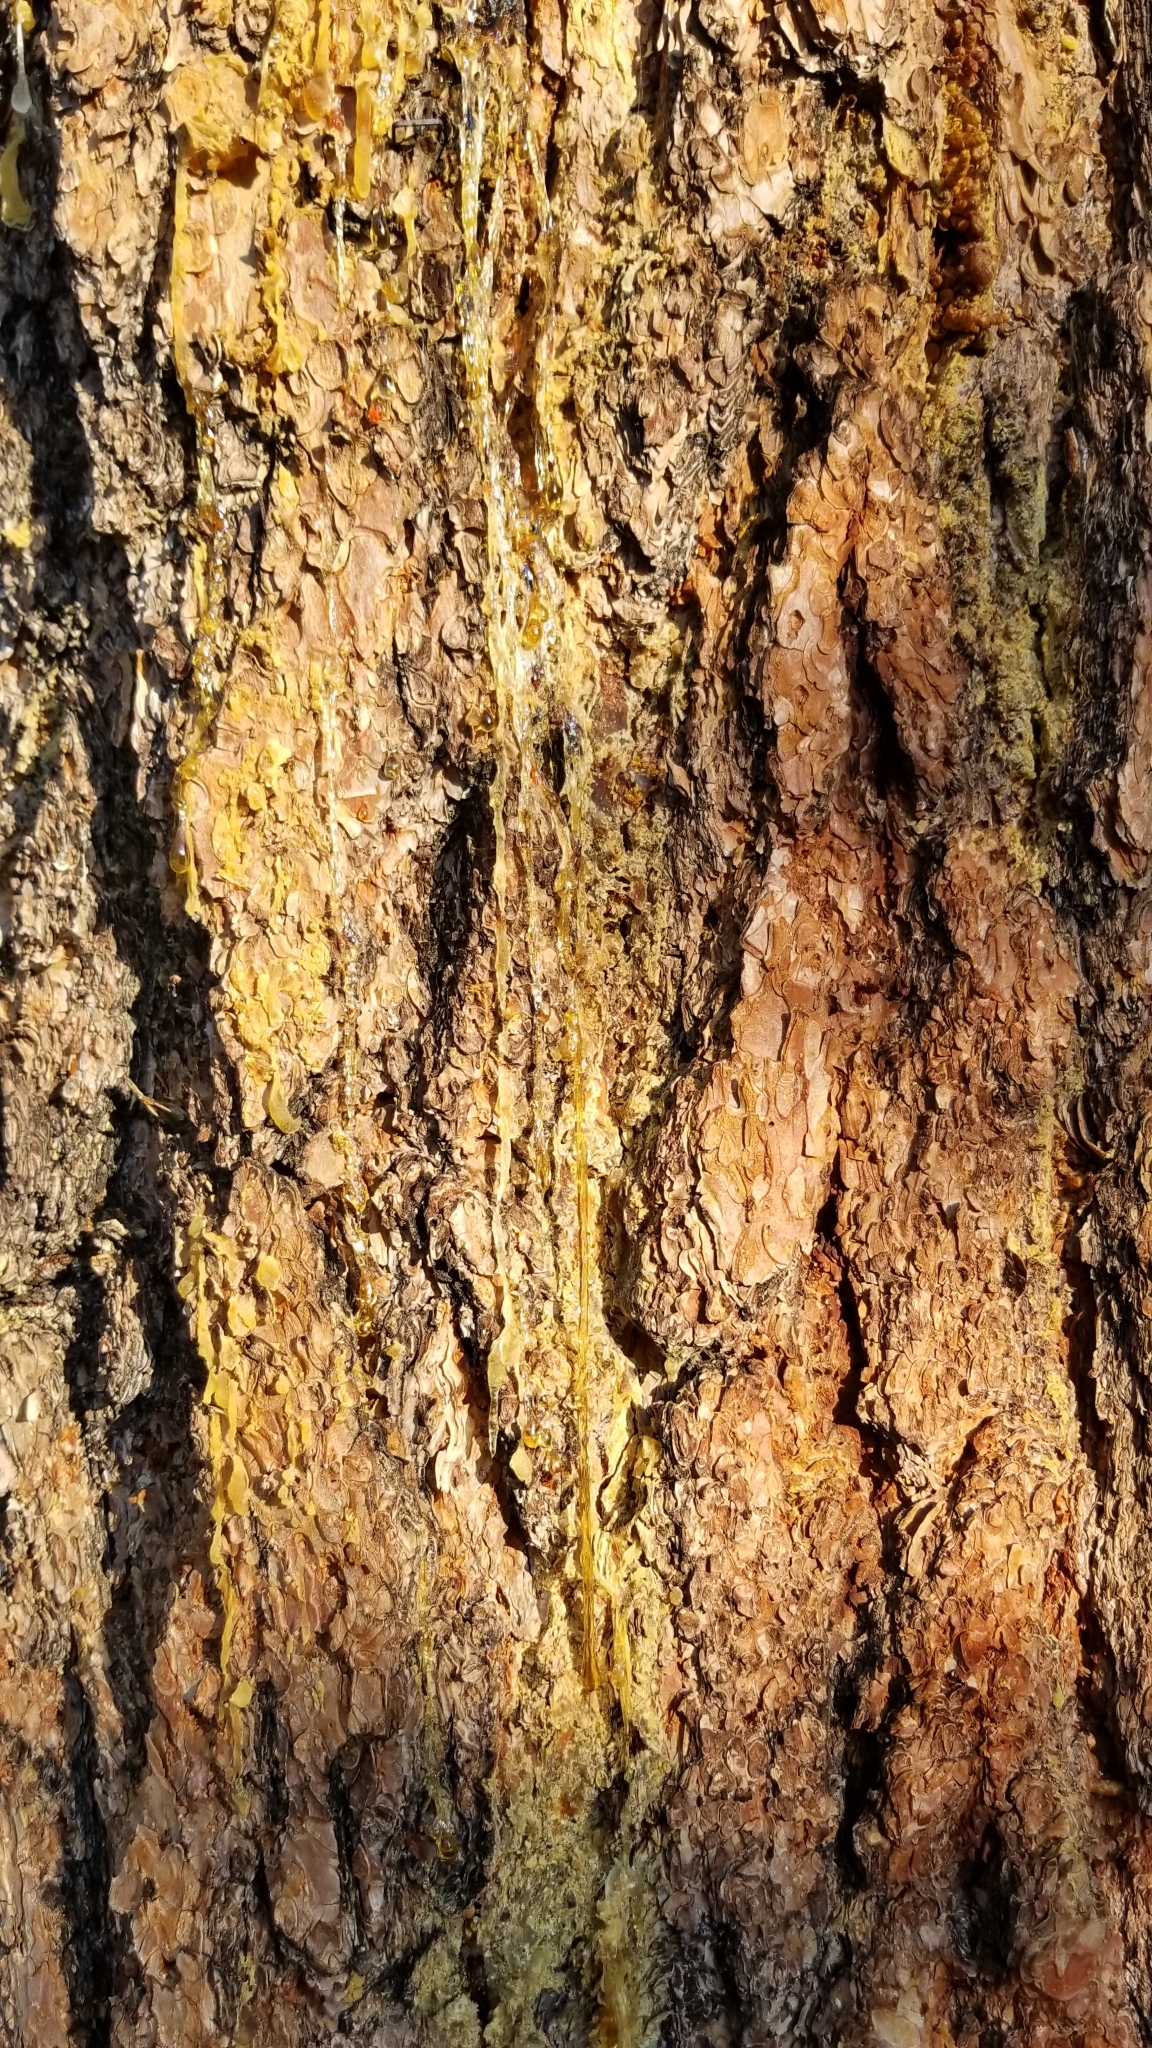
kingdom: Plantae
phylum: Tracheophyta
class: Pinopsida
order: Pinales
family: Pinaceae
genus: Pinus
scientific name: Pinus ponderosa
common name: Western yellow-pine
